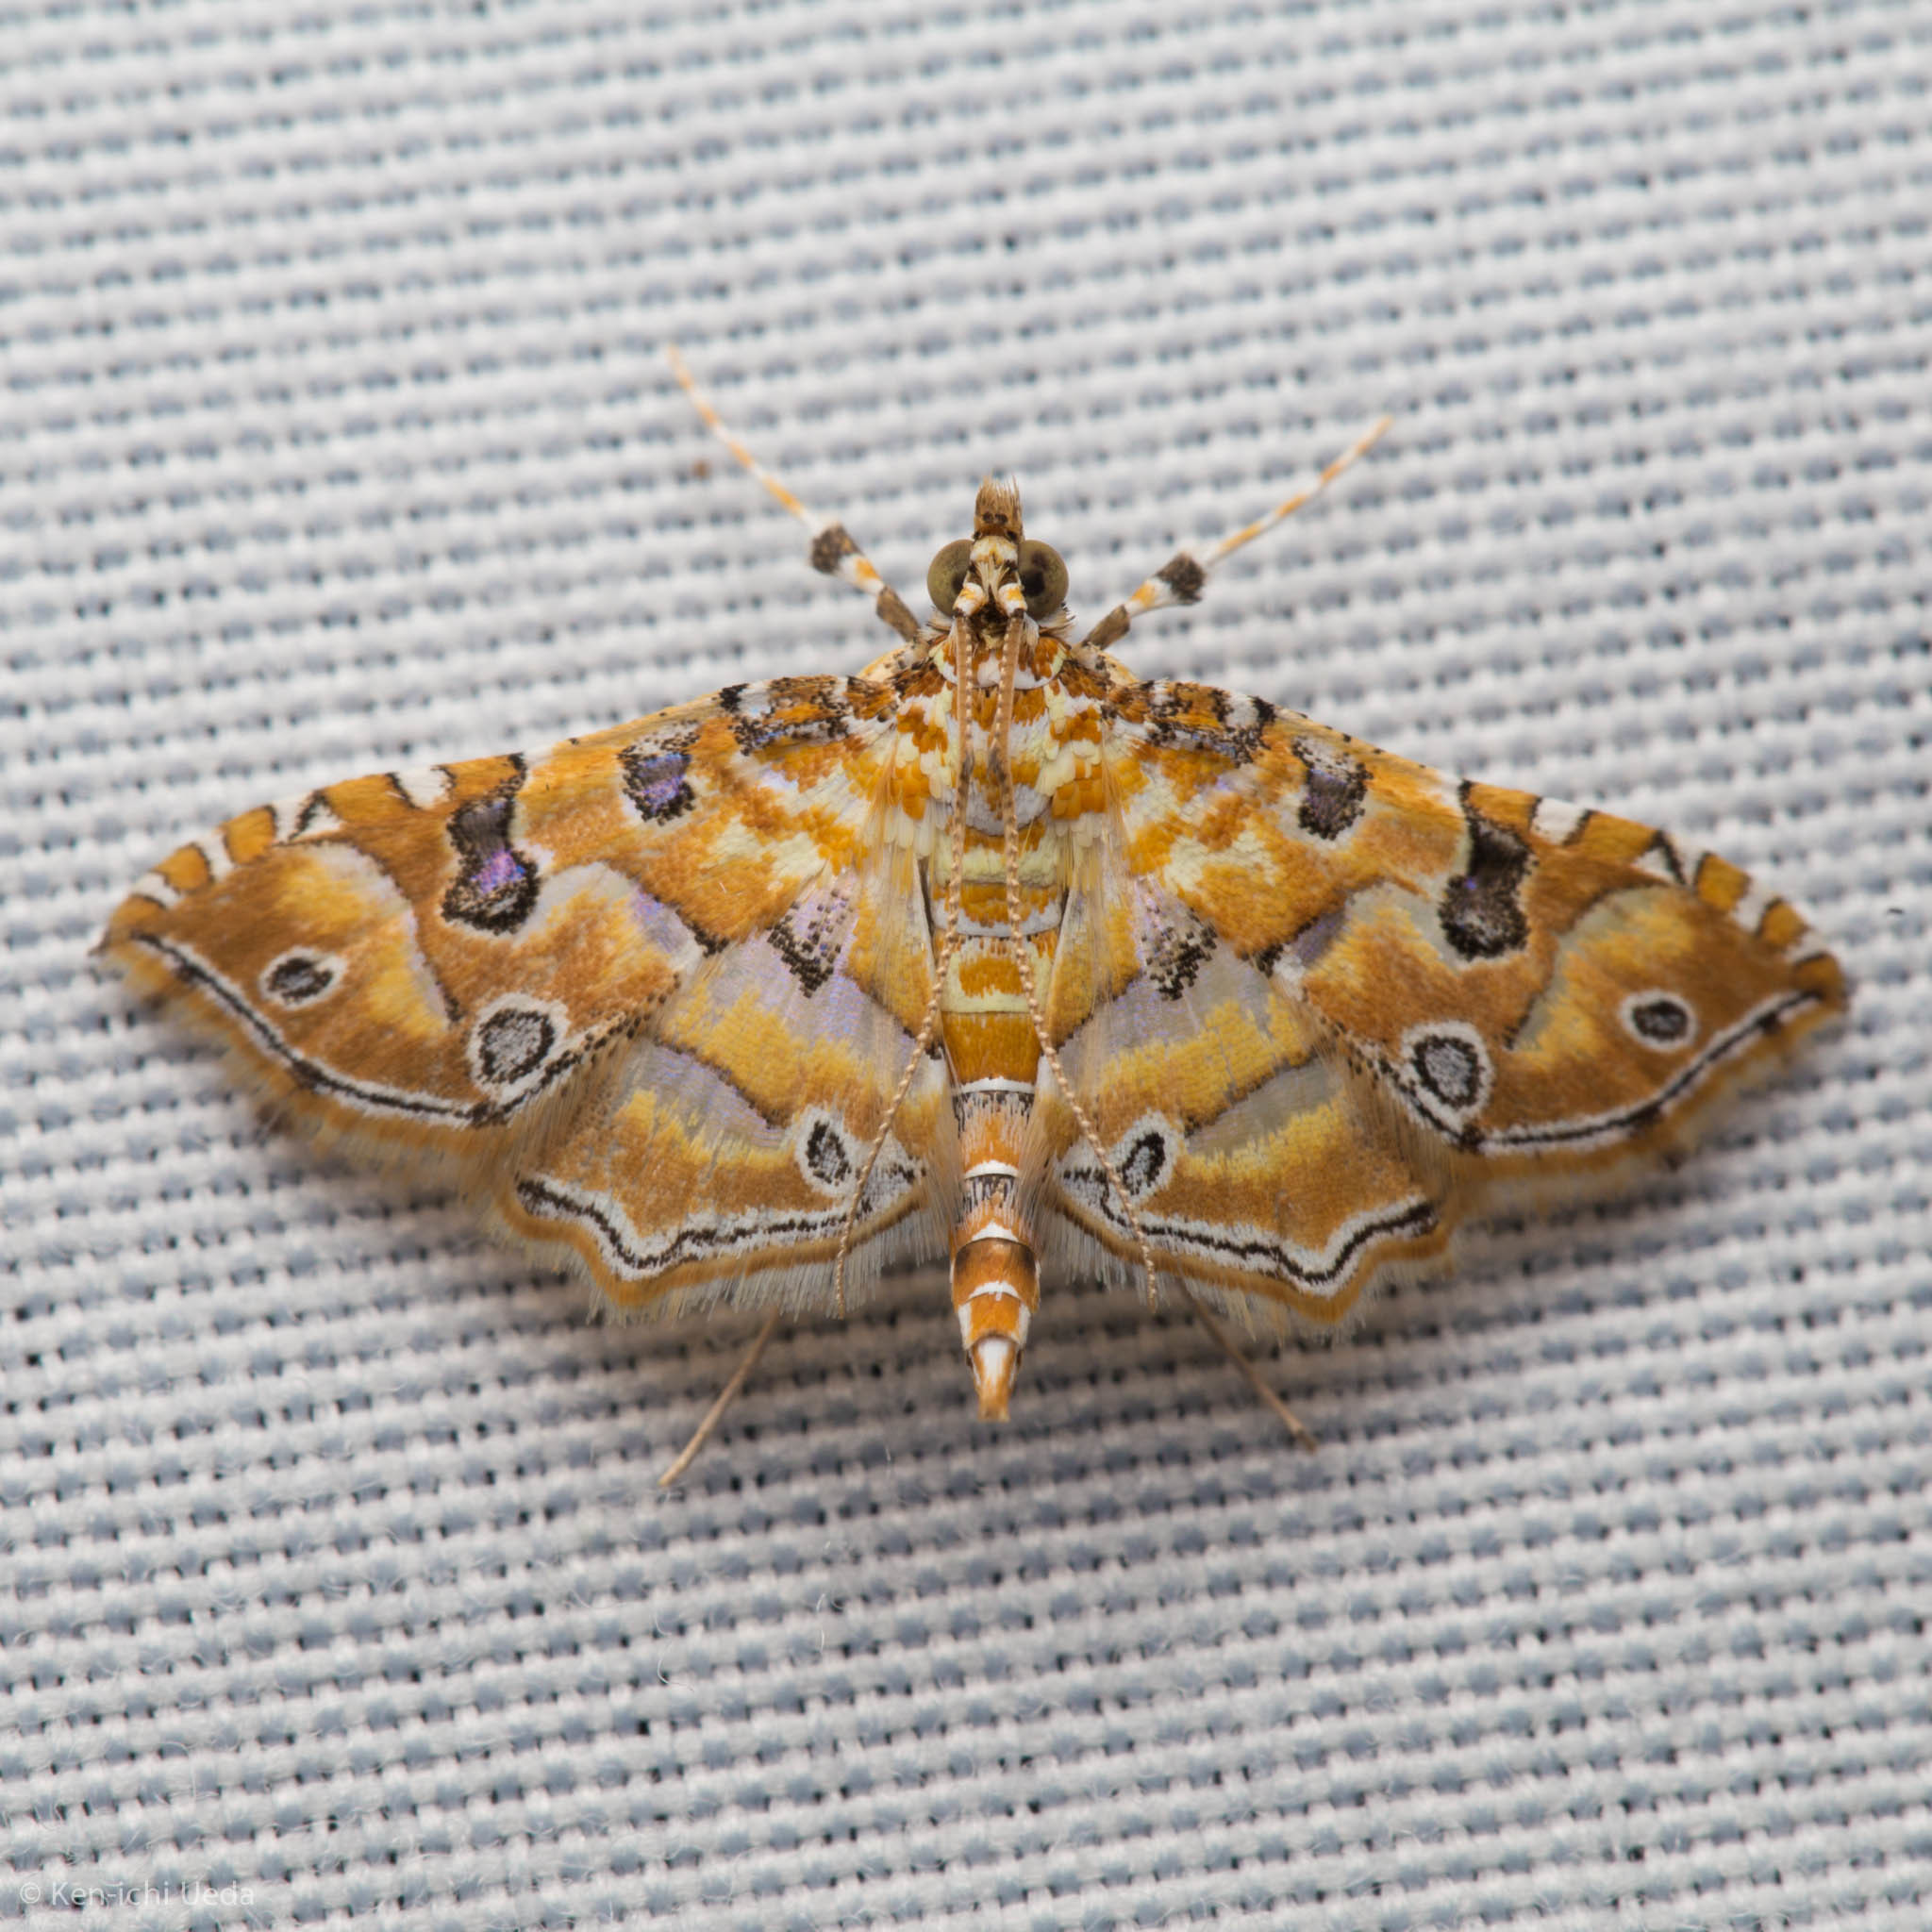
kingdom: Animalia
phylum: Arthropoda
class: Insecta
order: Lepidoptera
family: Crambidae
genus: Ommatospila
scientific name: Ommatospila narcaeusalis
